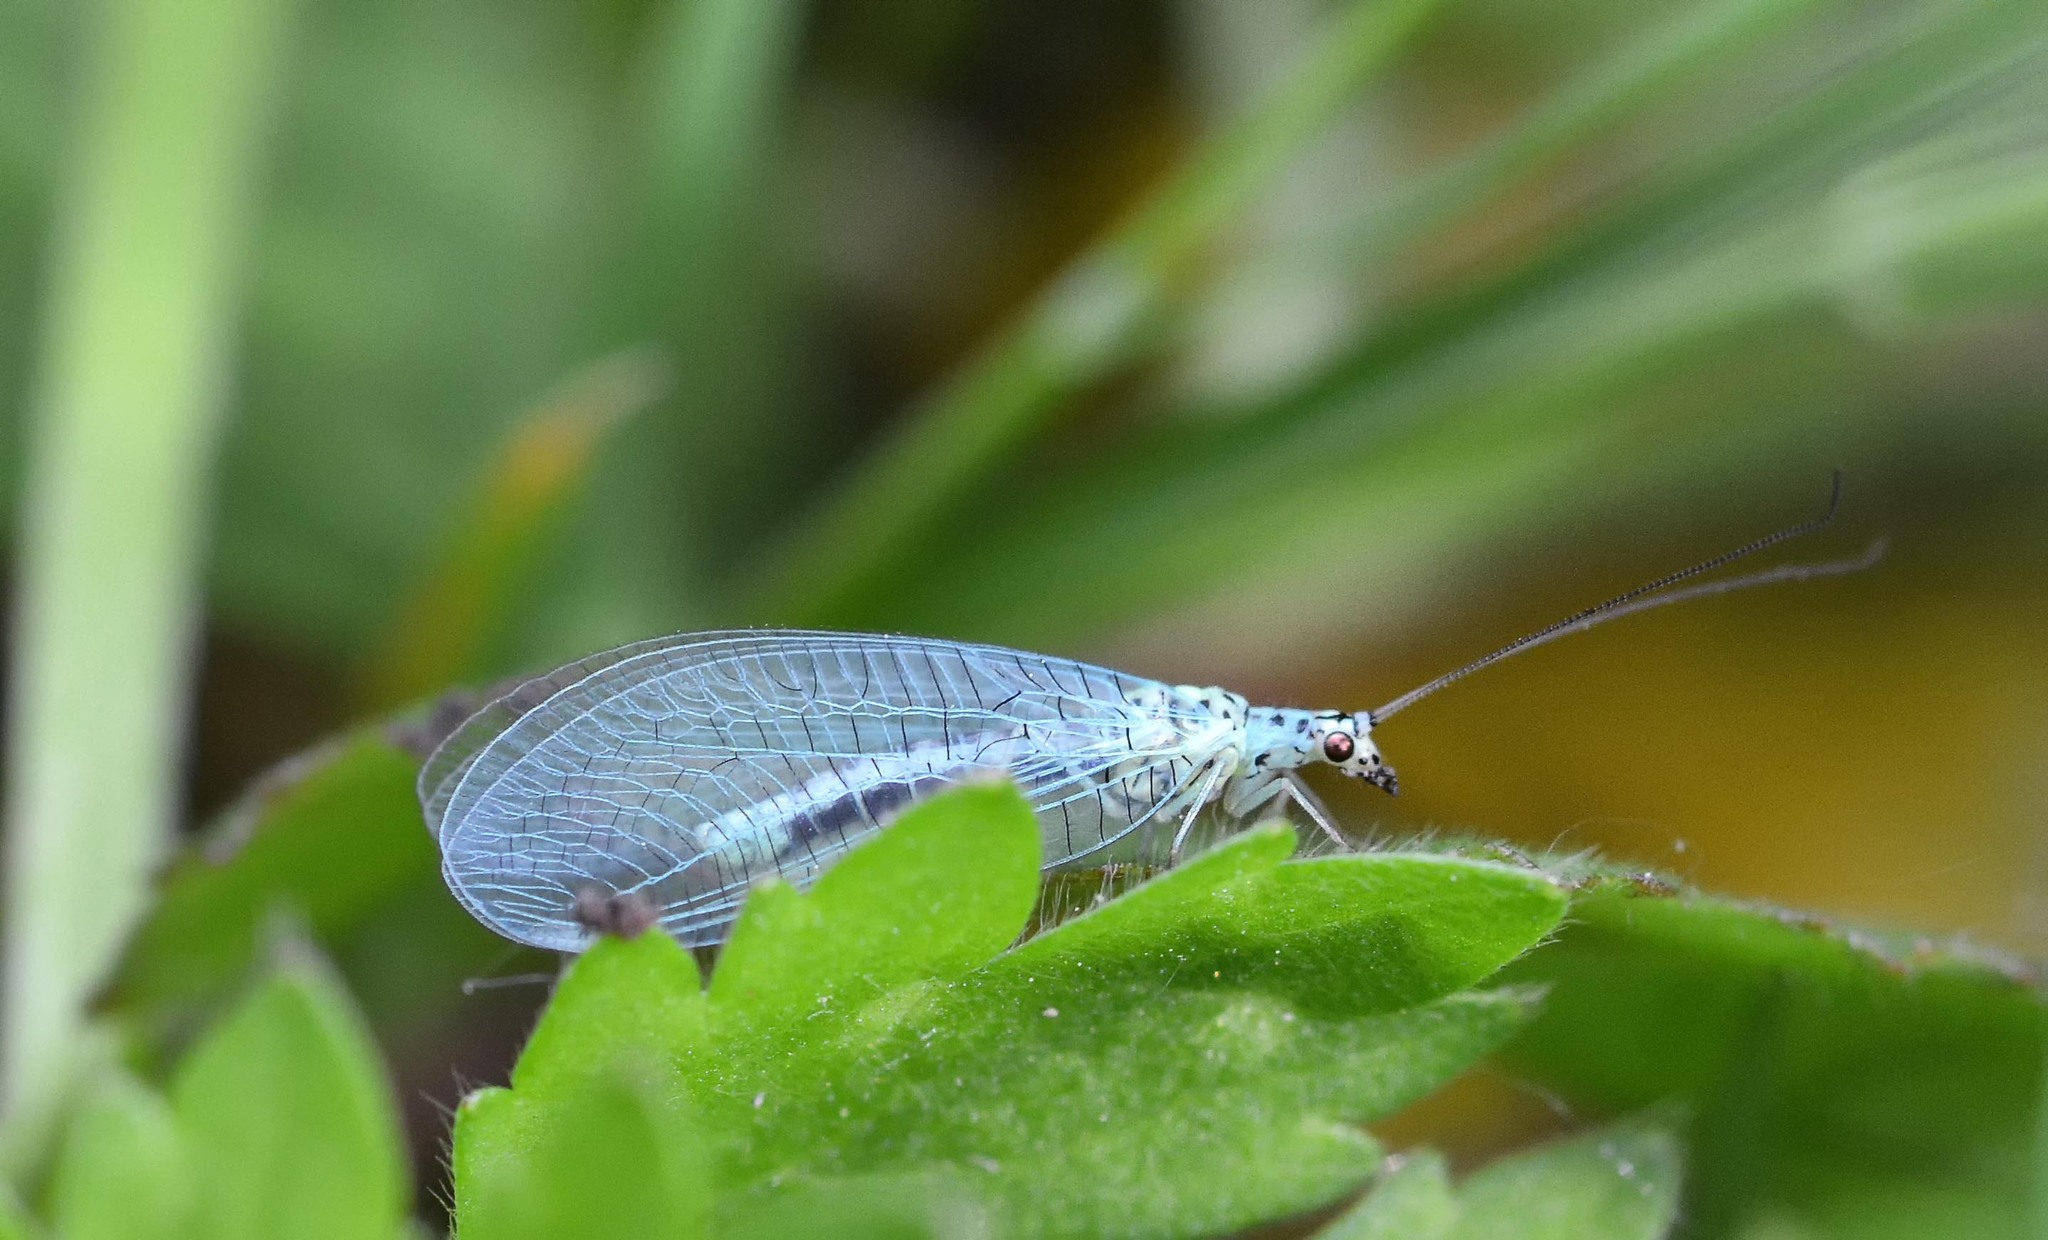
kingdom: Animalia
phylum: Arthropoda
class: Insecta
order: Neuroptera
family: Chrysopidae
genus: Chrysopa
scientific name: Chrysopa perla
